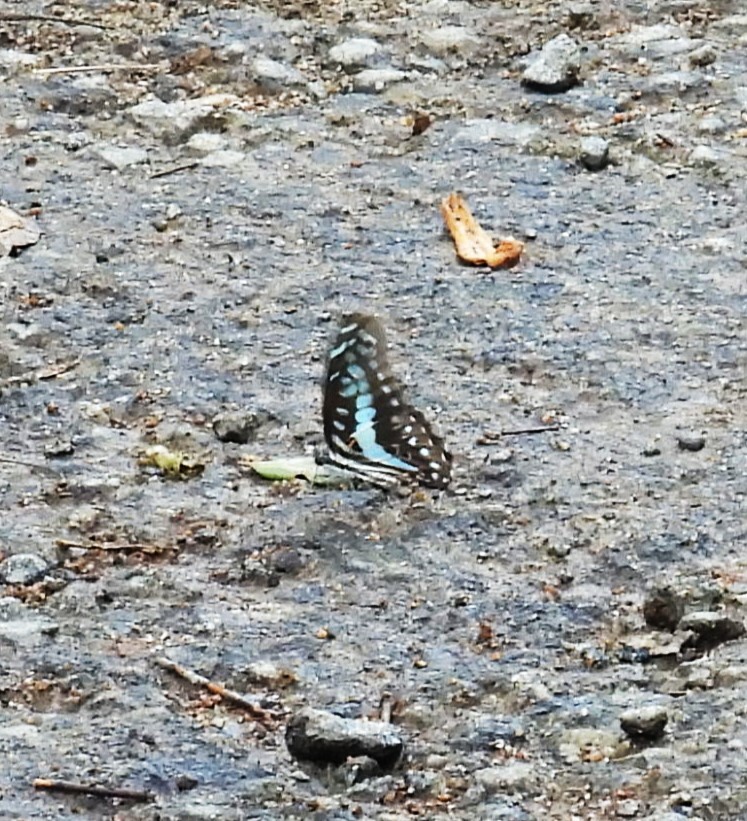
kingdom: Animalia
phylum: Arthropoda
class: Insecta
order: Lepidoptera
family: Papilionidae
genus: Graphium
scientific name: Graphium doson
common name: Common jay
